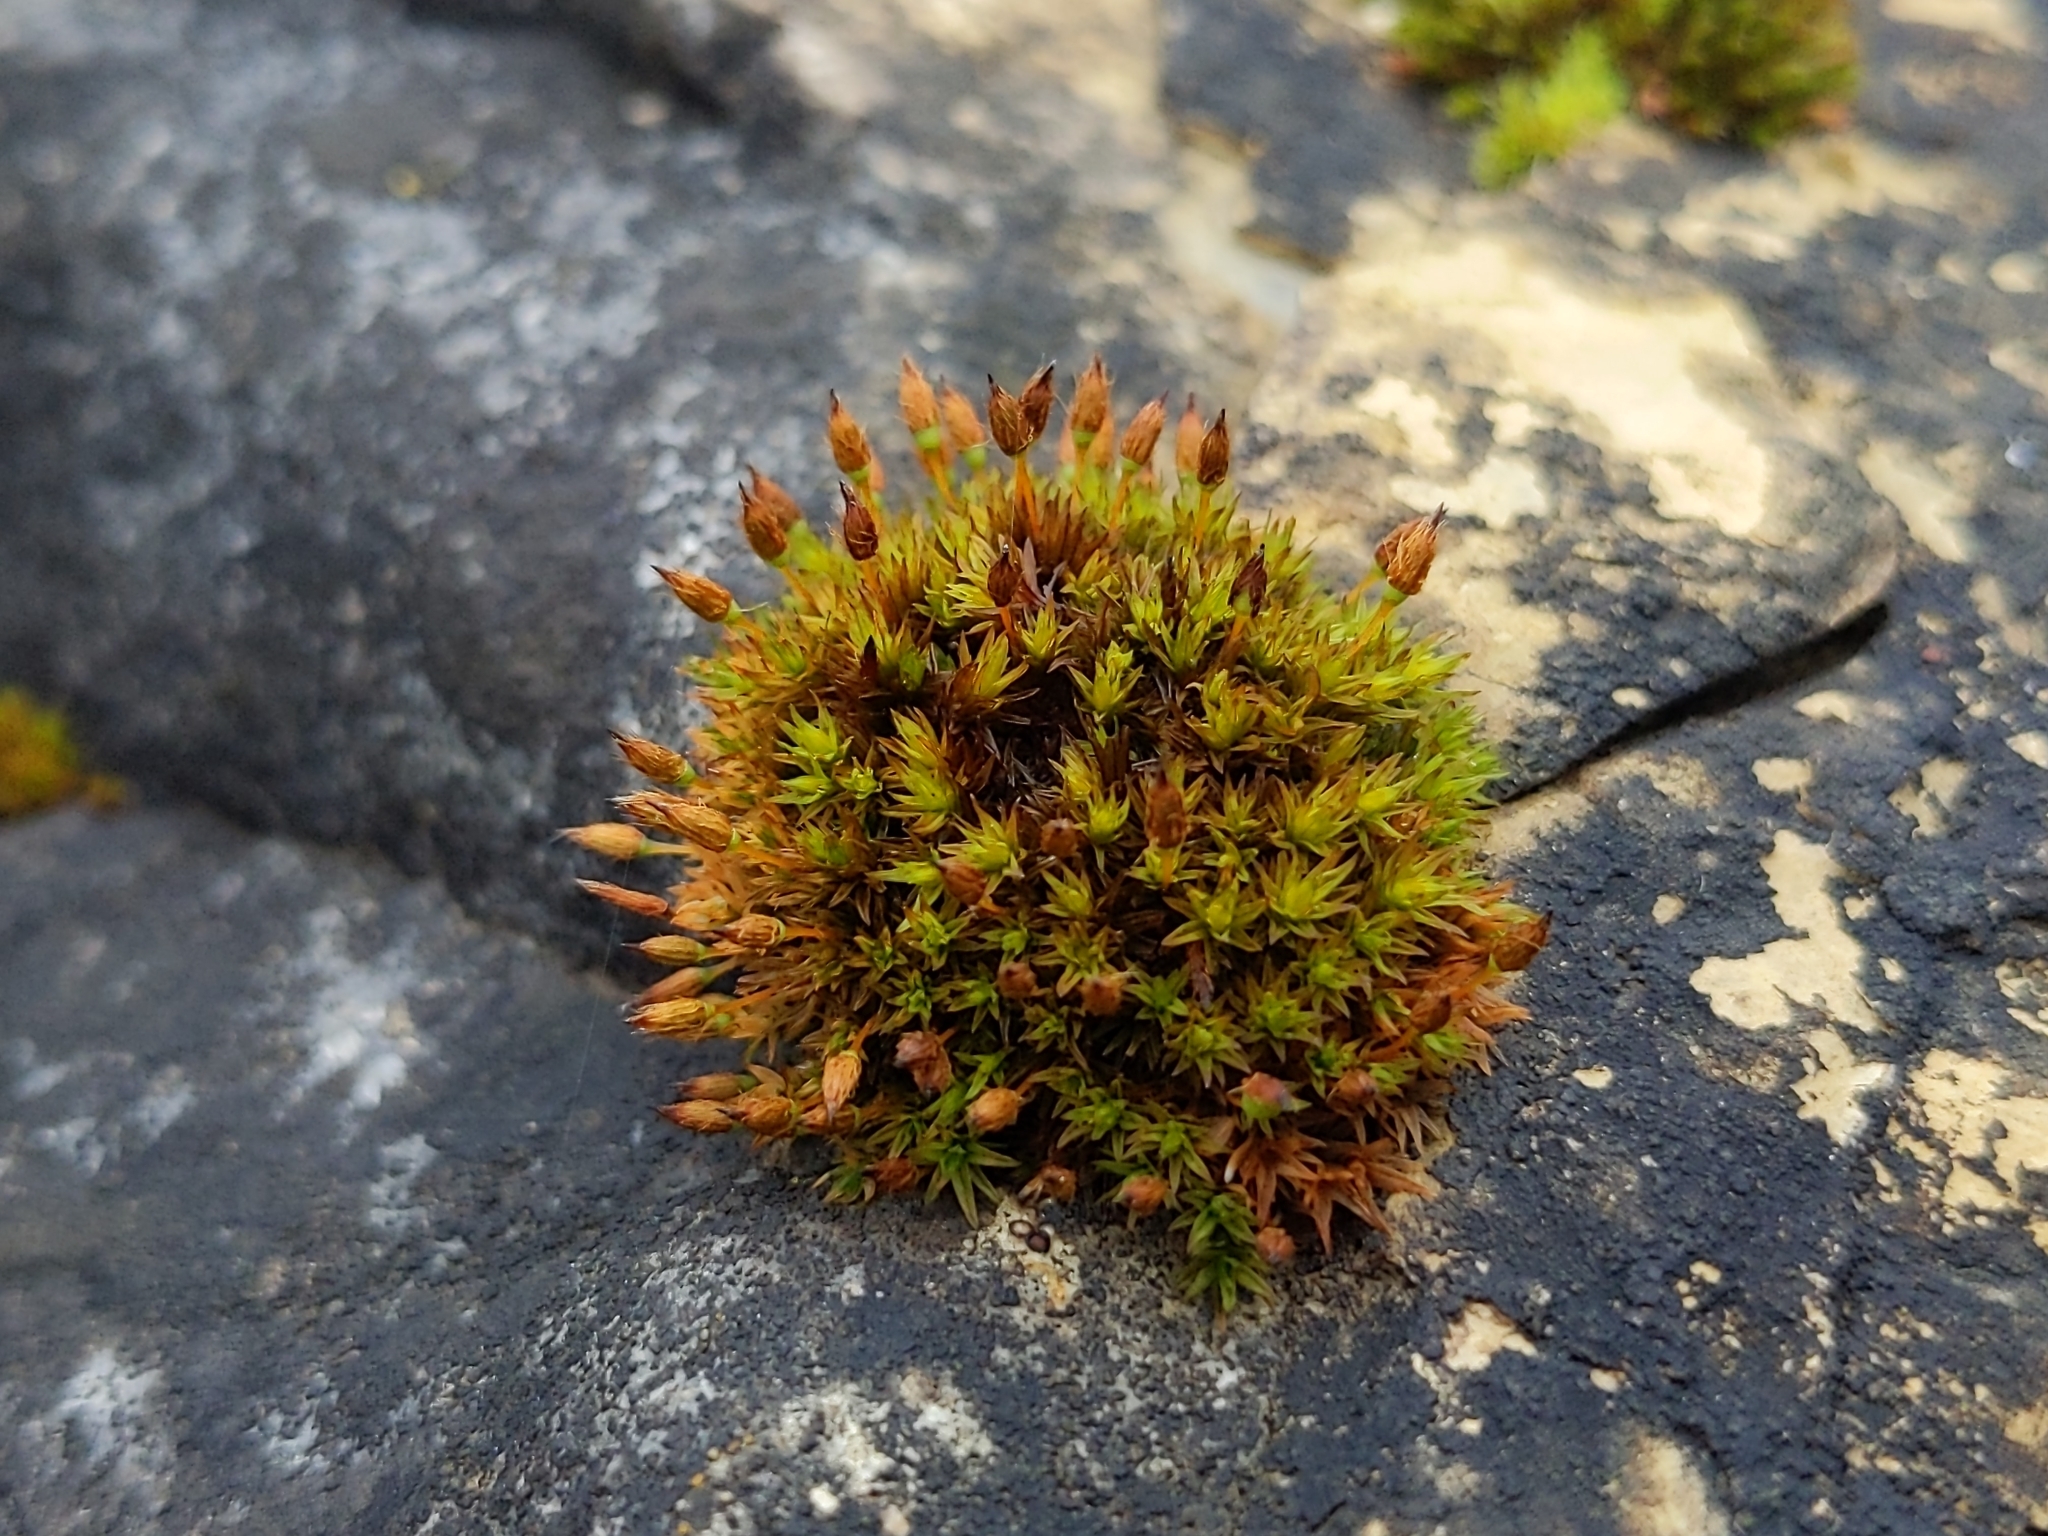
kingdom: Plantae
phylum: Bryophyta
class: Bryopsida
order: Orthotrichales
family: Orthotrichaceae
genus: Orthotrichum
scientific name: Orthotrichum anomalum
